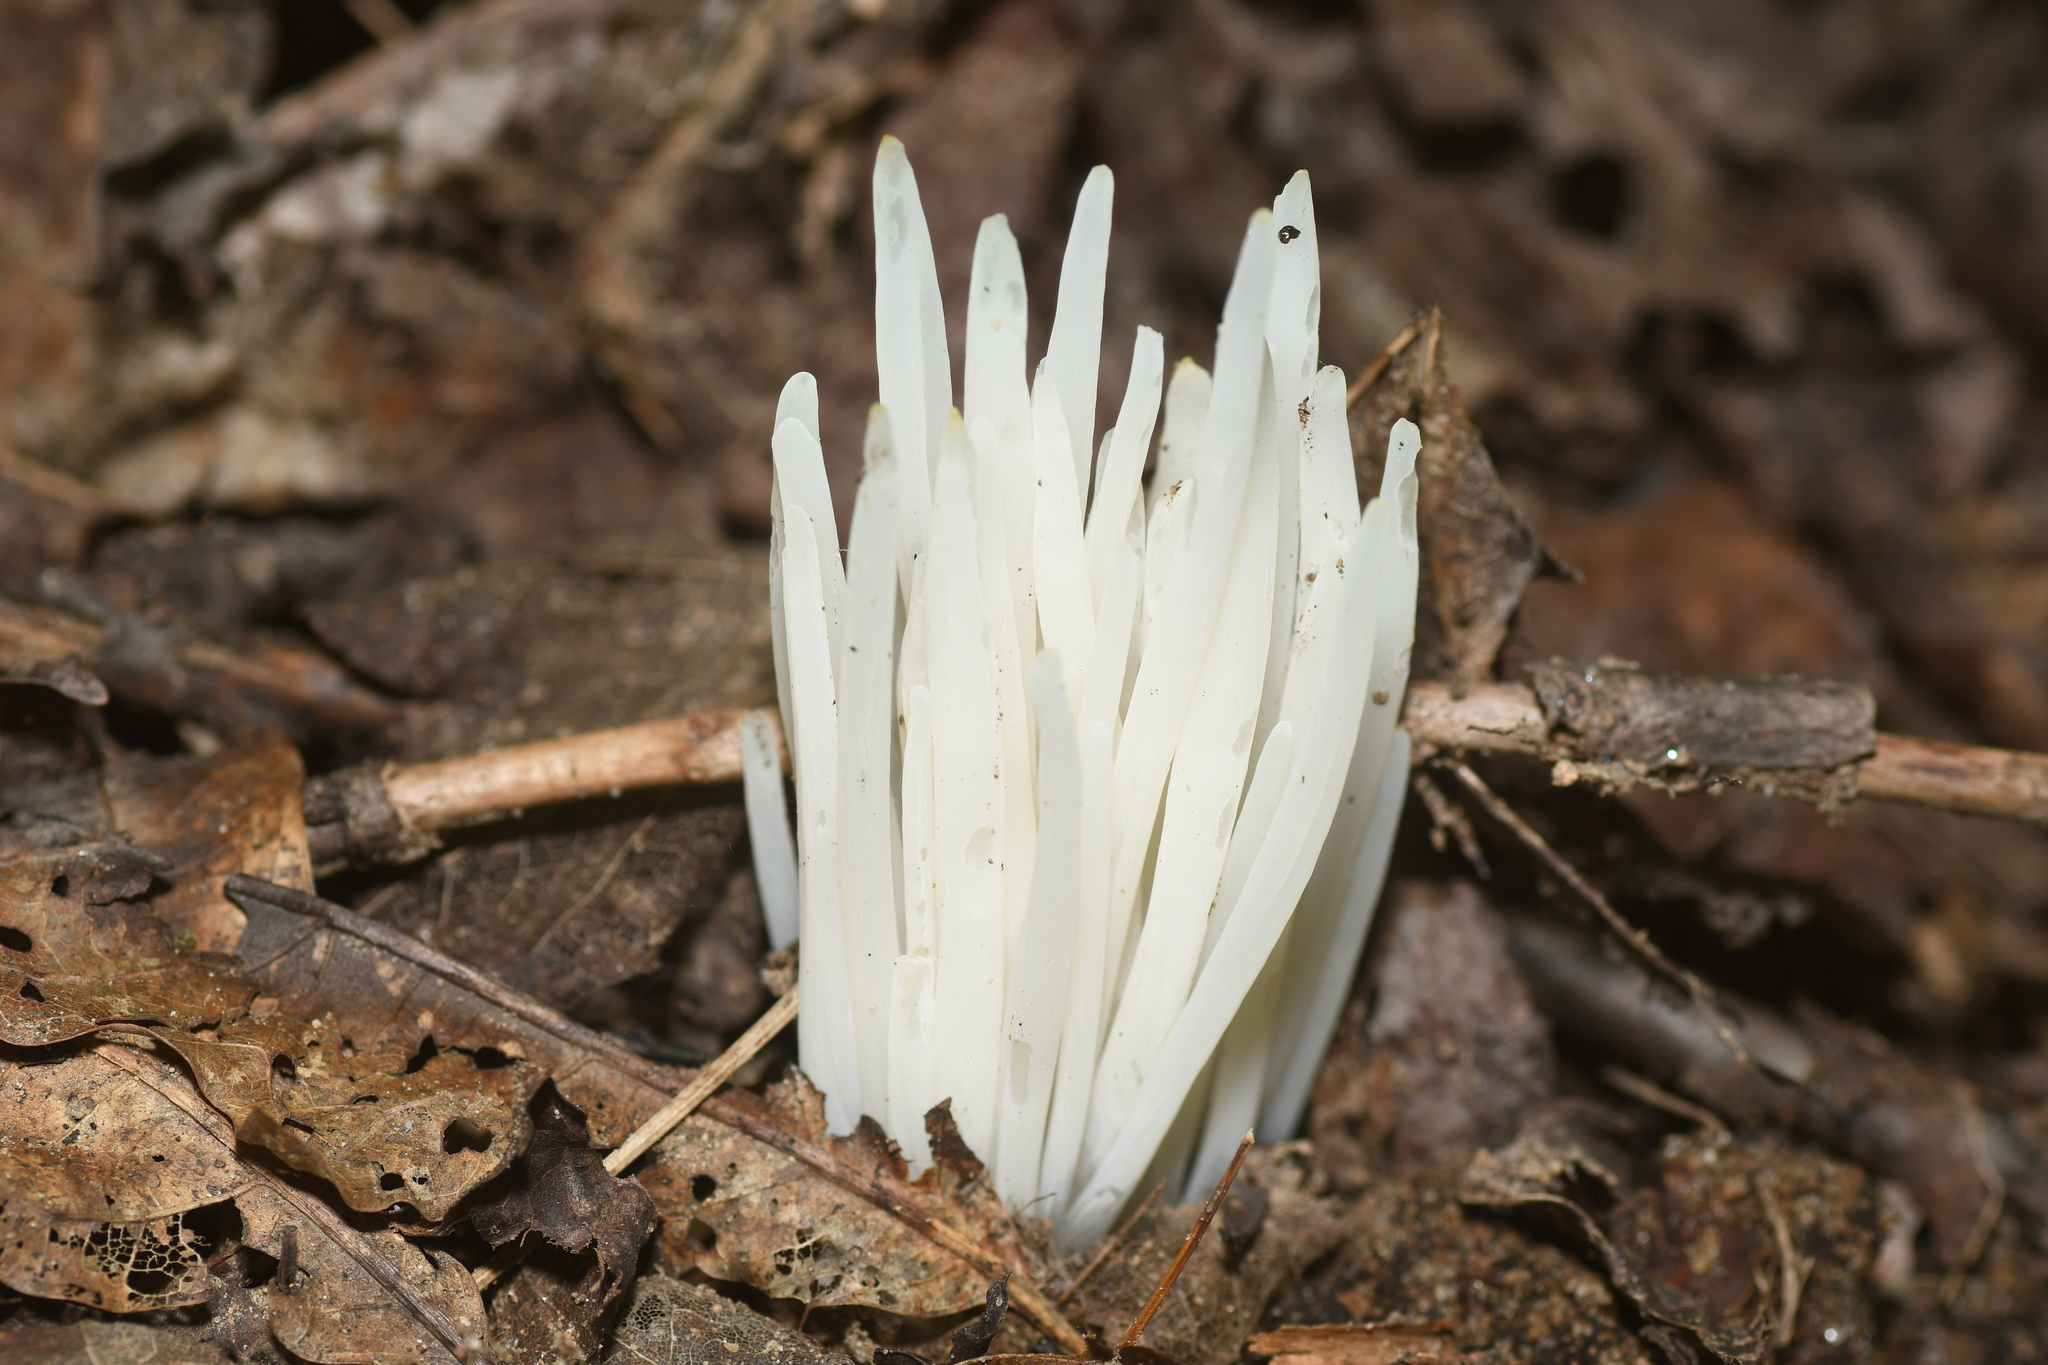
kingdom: Fungi
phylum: Basidiomycota
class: Agaricomycetes
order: Agaricales
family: Clavariaceae
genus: Clavaria
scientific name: Clavaria fragilis
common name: White spindles
